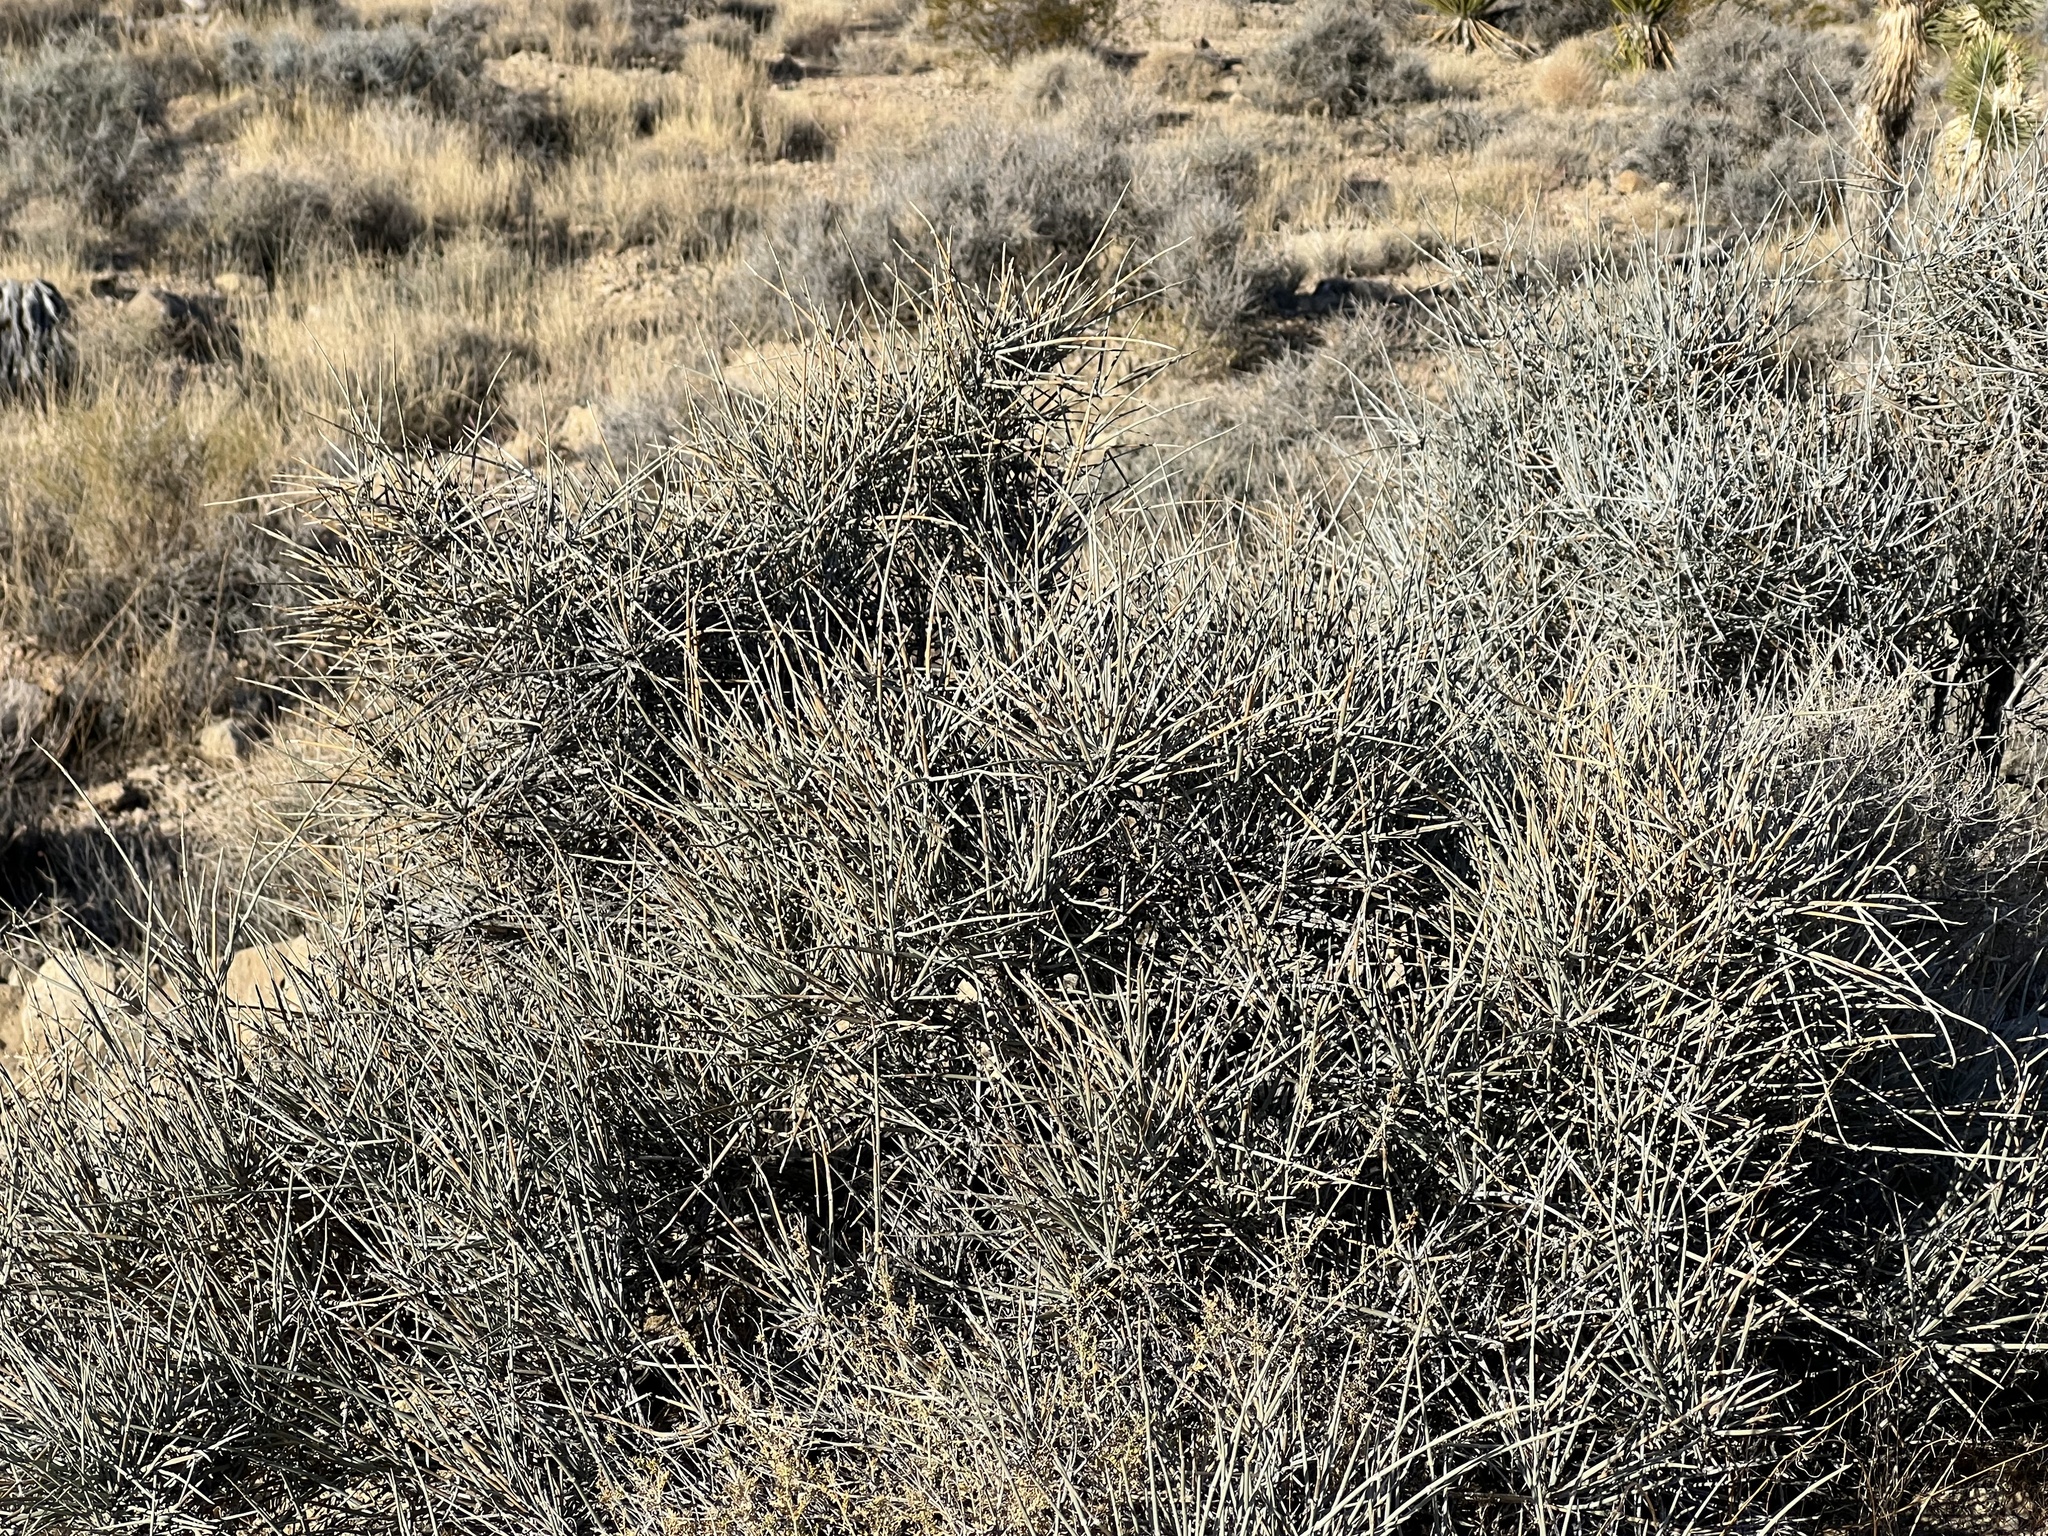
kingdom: Plantae
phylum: Tracheophyta
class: Gnetopsida
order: Ephedrales
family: Ephedraceae
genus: Ephedra
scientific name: Ephedra nevadensis
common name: Gray ephedra
